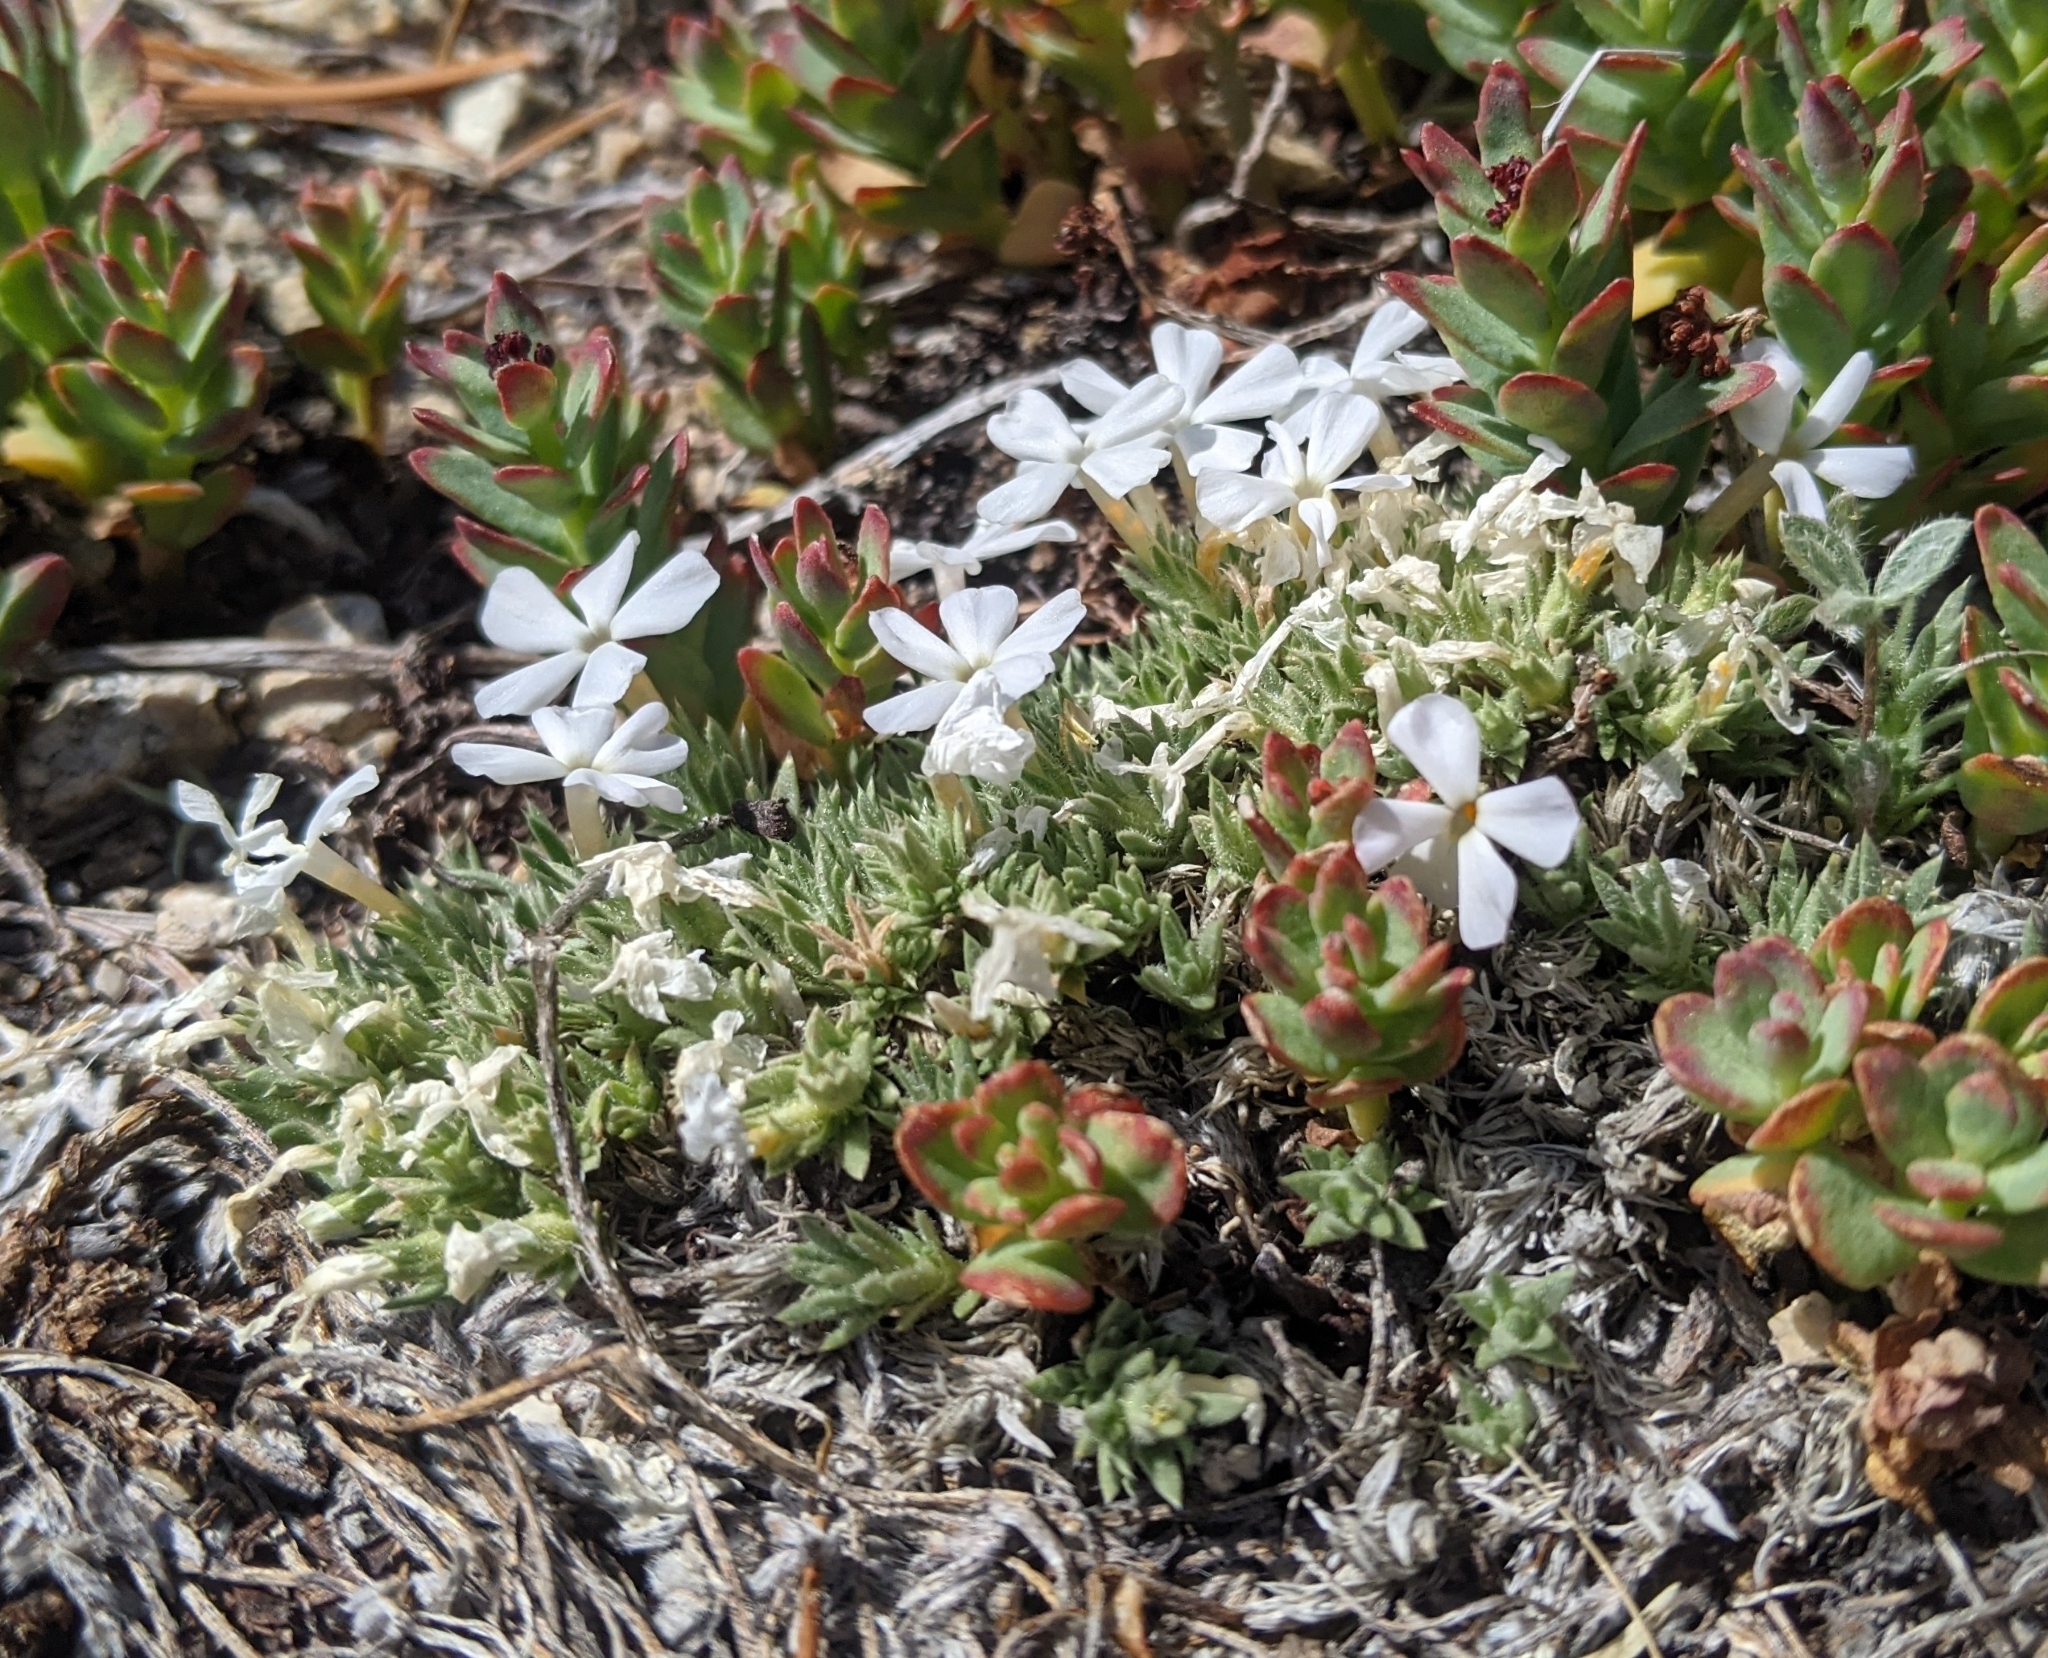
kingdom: Plantae
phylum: Tracheophyta
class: Magnoliopsida
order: Ericales
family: Polemoniaceae
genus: Phlox
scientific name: Phlox condensata
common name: Compact phlox
